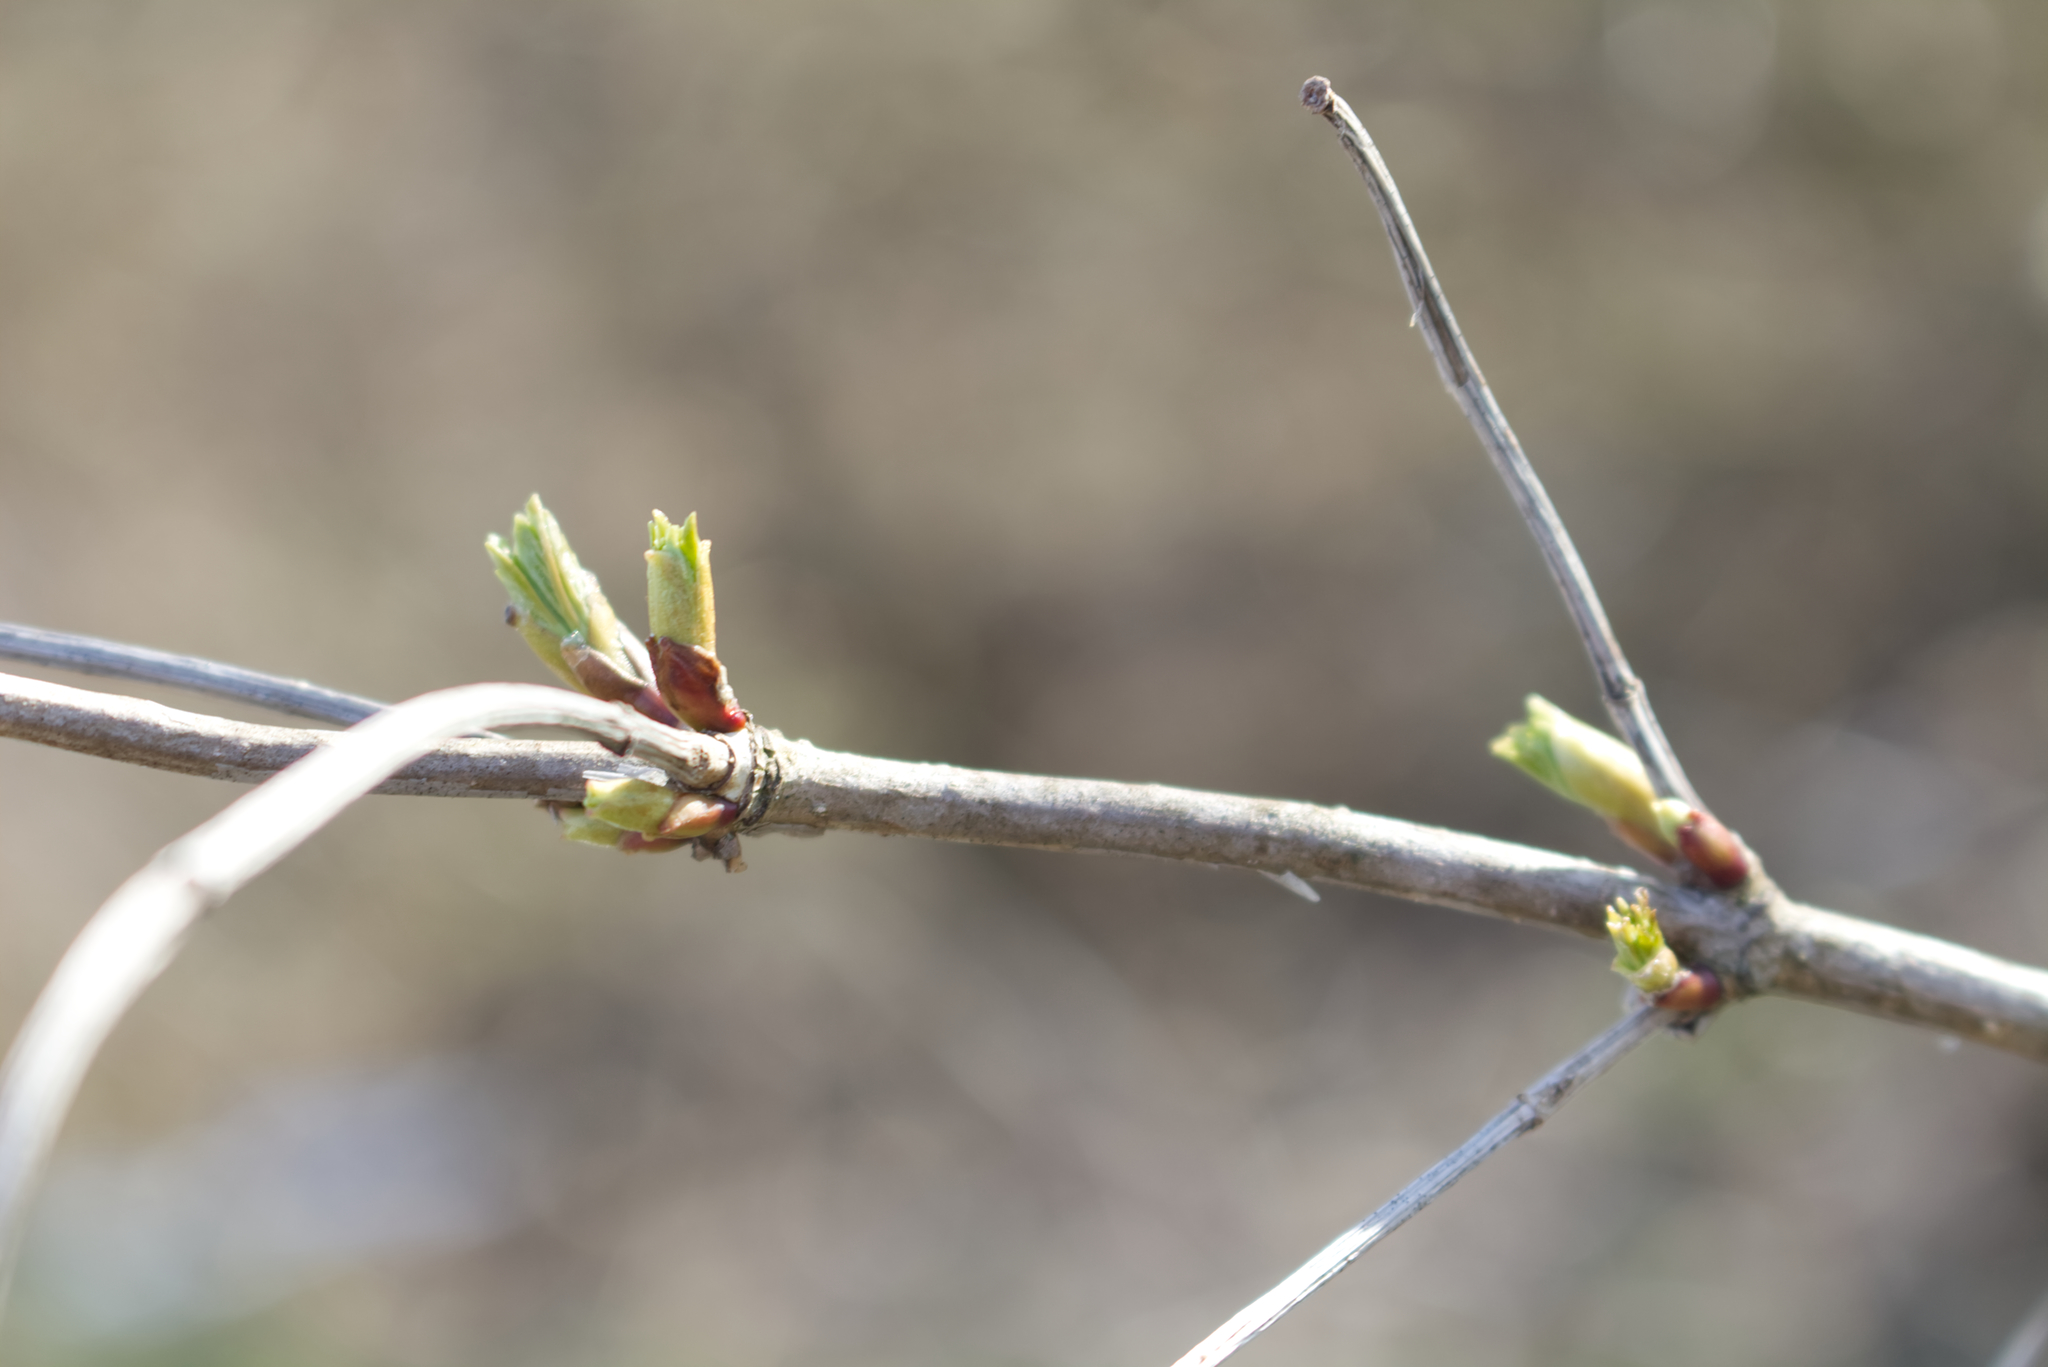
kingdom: Plantae
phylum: Tracheophyta
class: Magnoliopsida
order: Dipsacales
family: Viburnaceae
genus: Viburnum
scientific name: Viburnum opulus
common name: Guelder-rose
